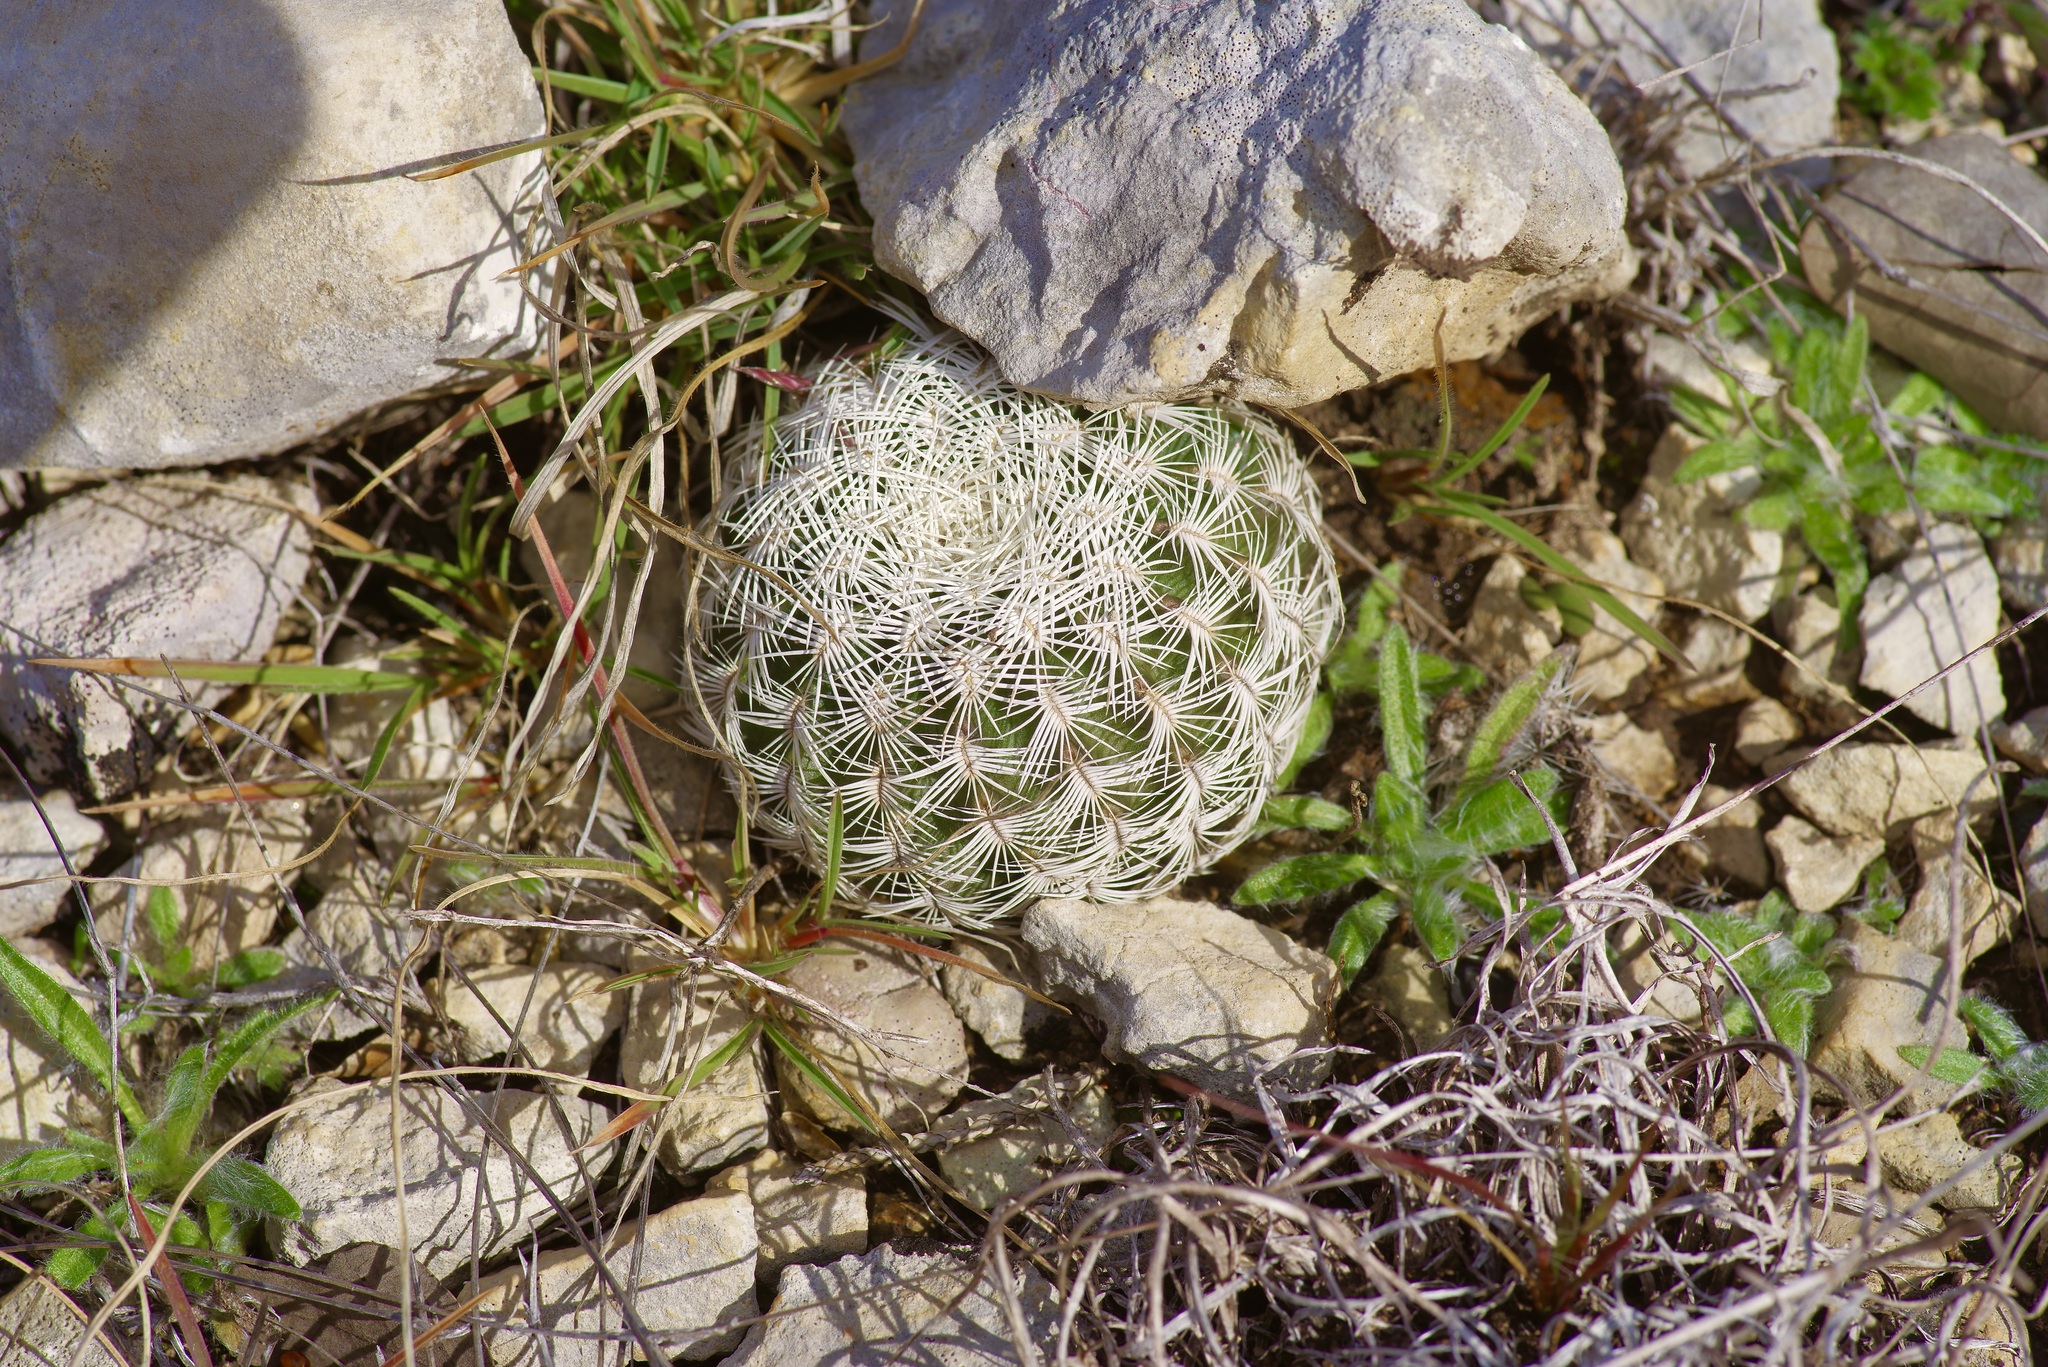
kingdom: Plantae
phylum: Tracheophyta
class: Magnoliopsida
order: Caryophyllales
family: Cactaceae
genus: Echinocereus
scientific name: Echinocereus reichenbachii
